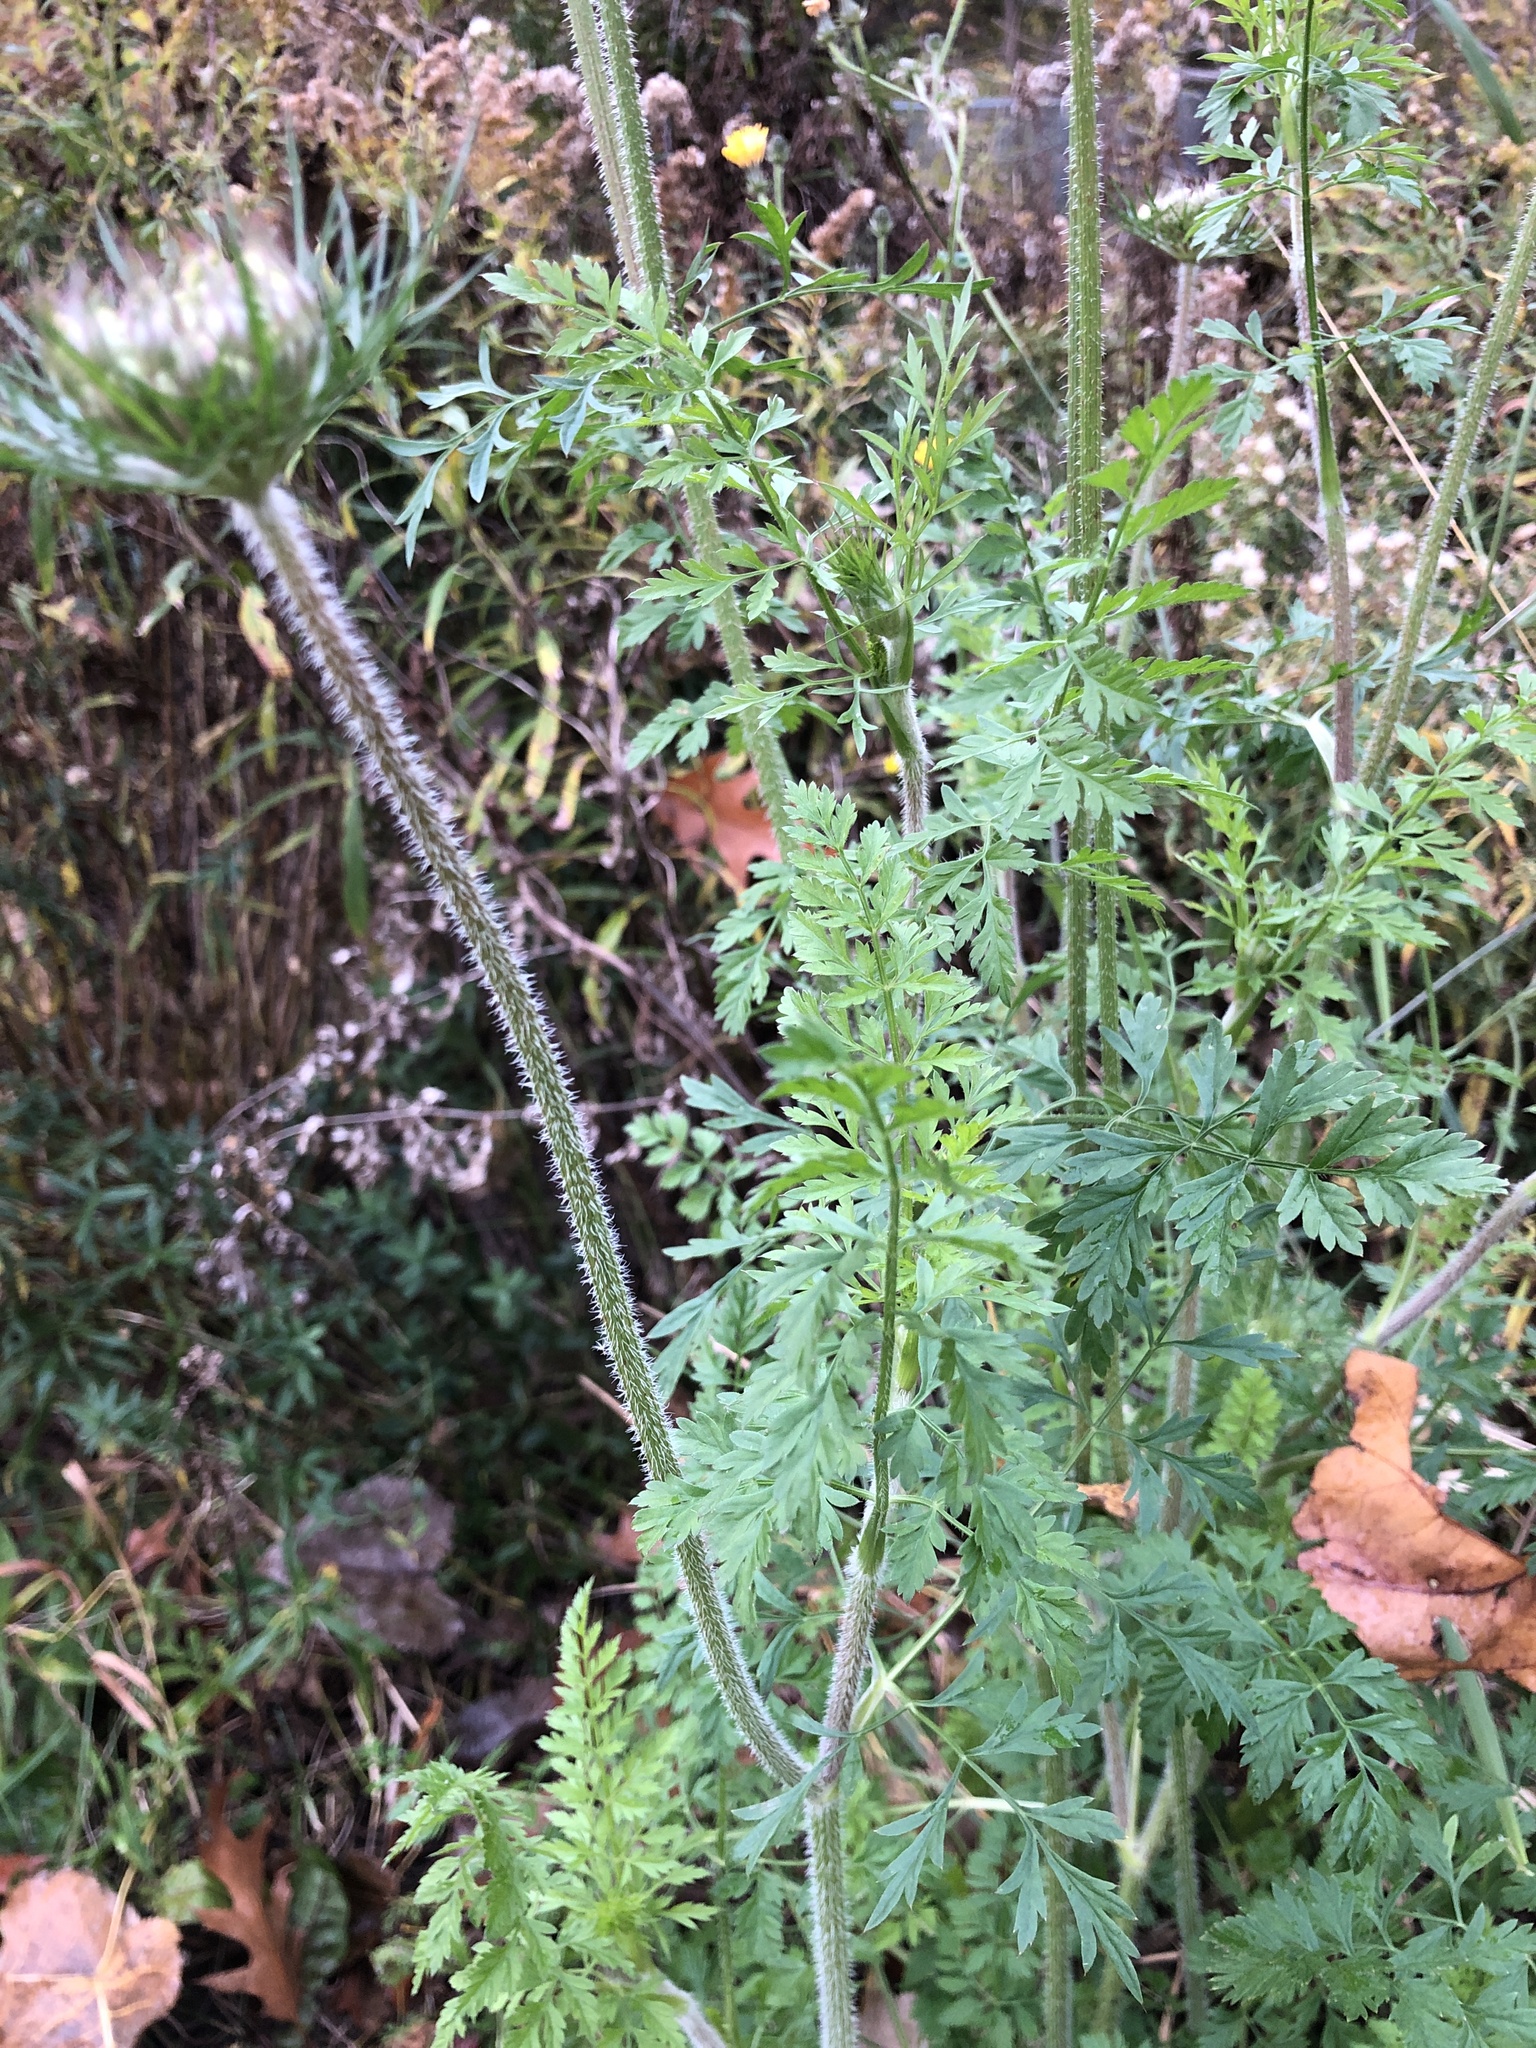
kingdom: Plantae
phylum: Tracheophyta
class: Magnoliopsida
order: Apiales
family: Apiaceae
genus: Daucus
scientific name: Daucus carota
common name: Wild carrot
